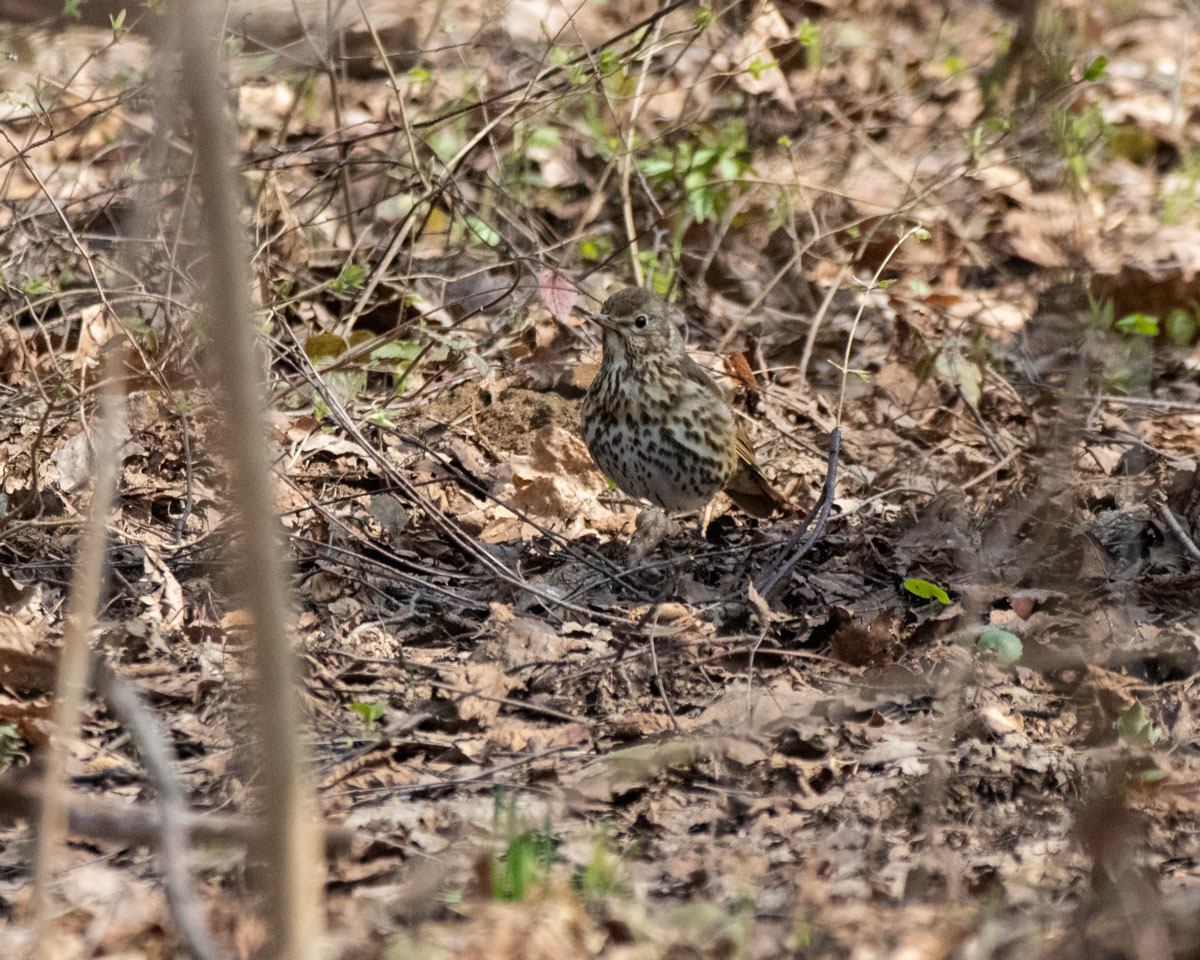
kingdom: Animalia
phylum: Chordata
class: Aves
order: Passeriformes
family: Turdidae
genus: Turdus
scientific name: Turdus philomelos
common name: Song thrush
